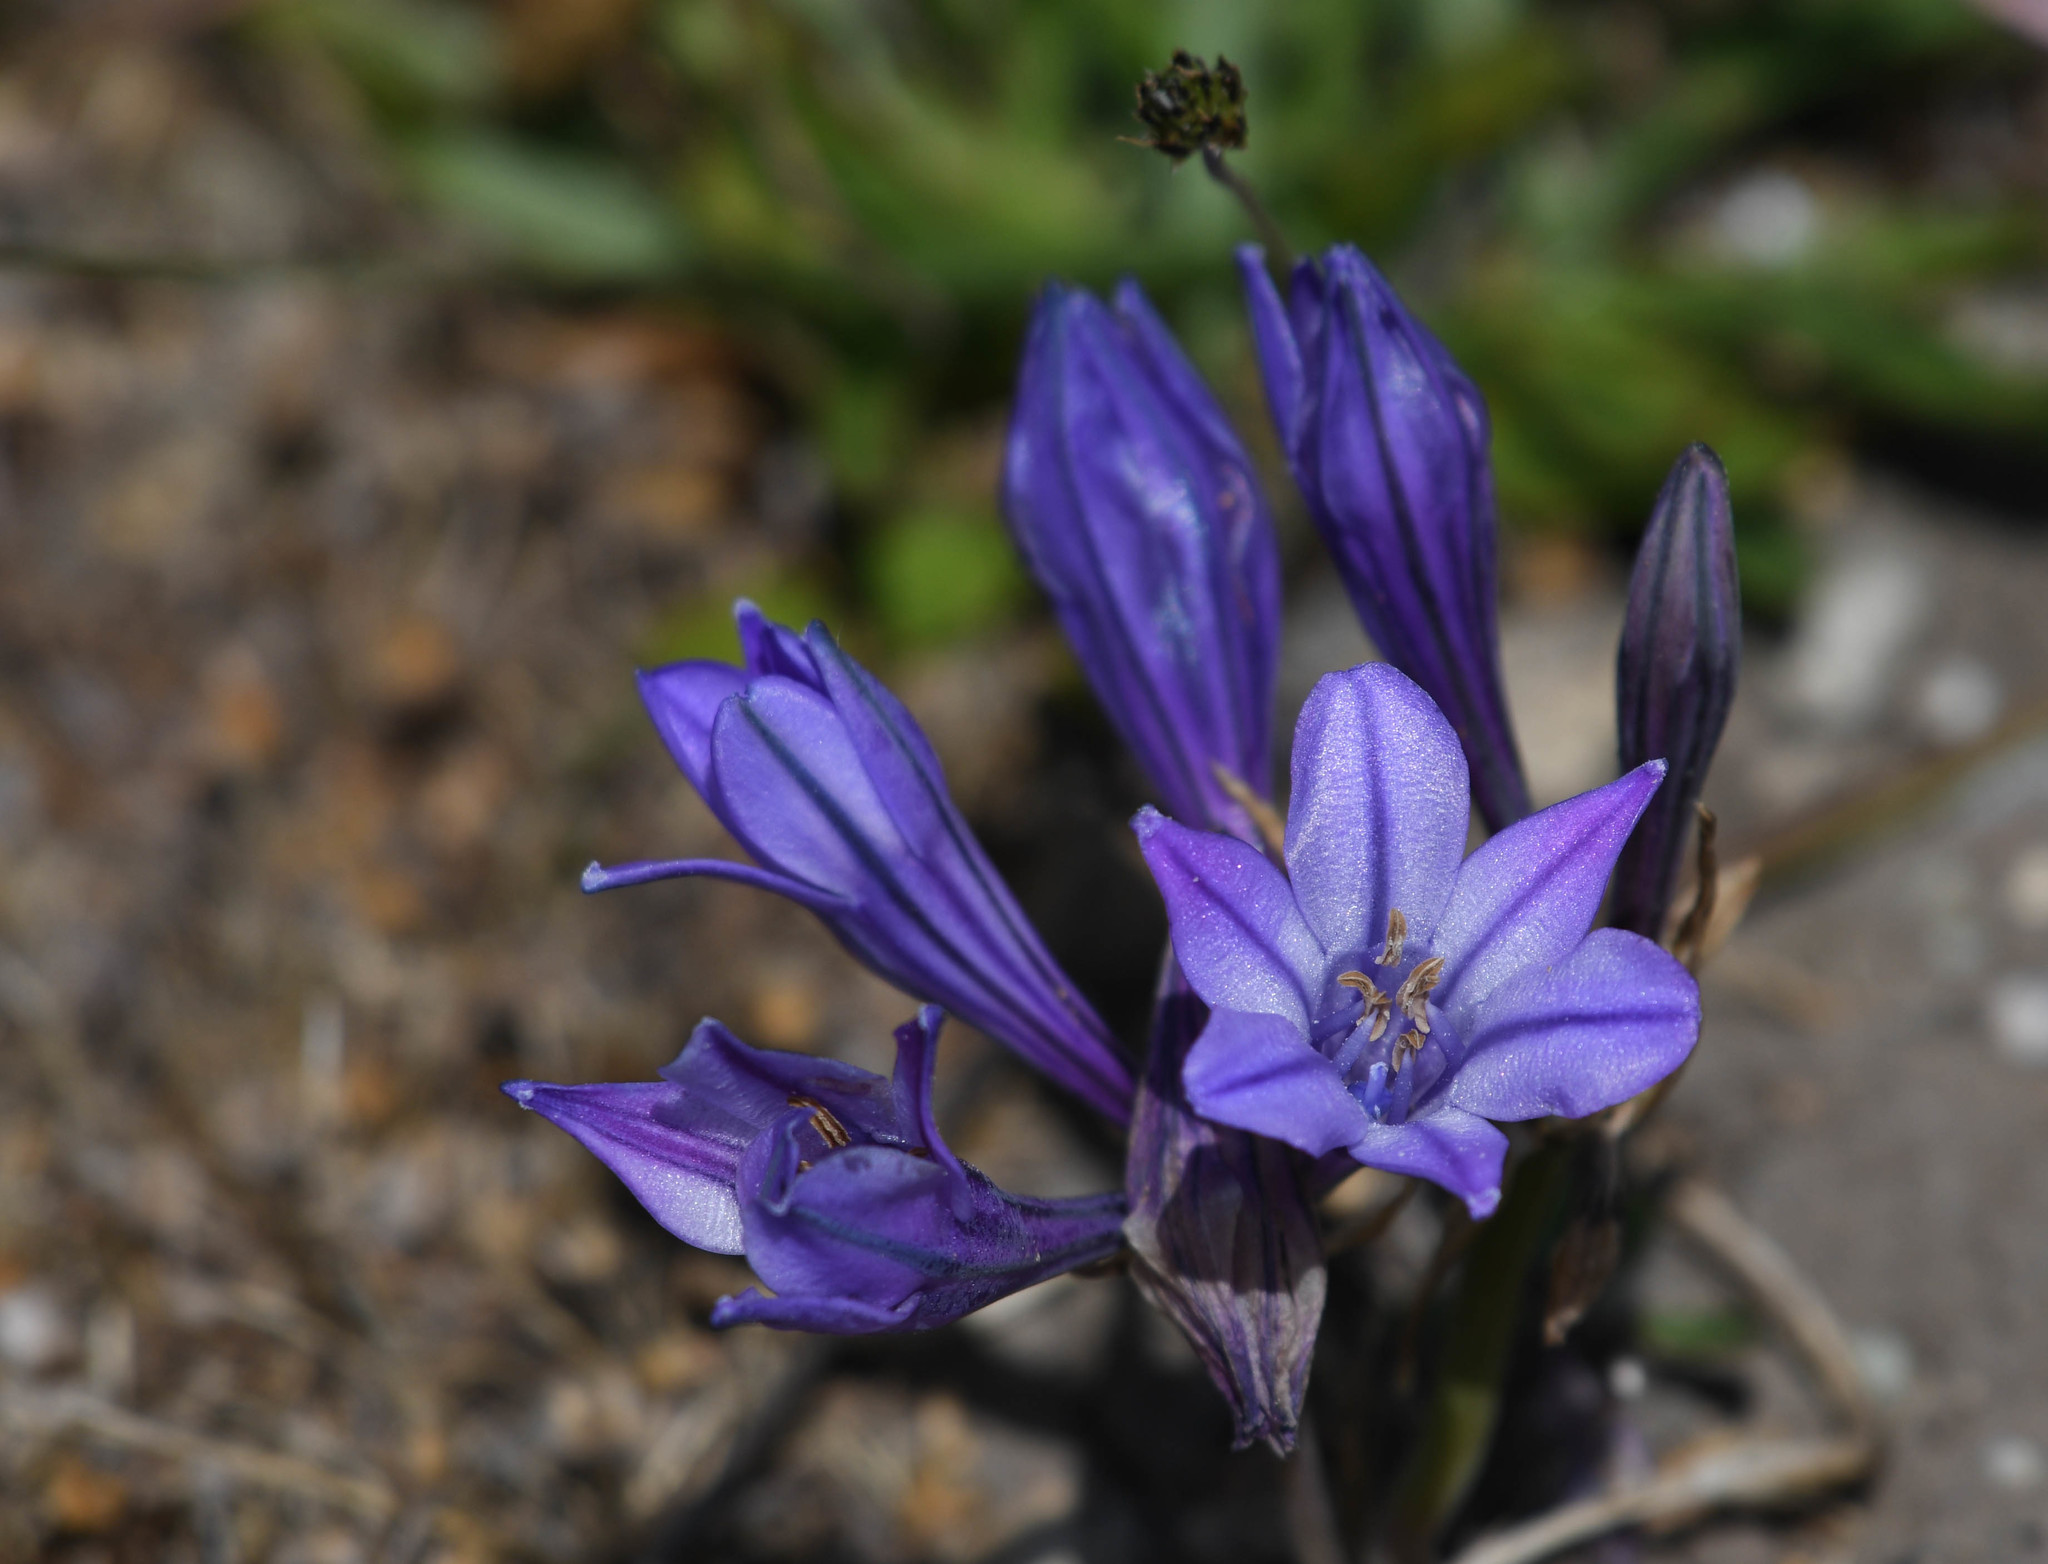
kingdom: Plantae
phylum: Tracheophyta
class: Liliopsida
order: Asparagales
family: Asparagaceae
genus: Triteleia
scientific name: Triteleia laxa
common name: Triplet-lily
